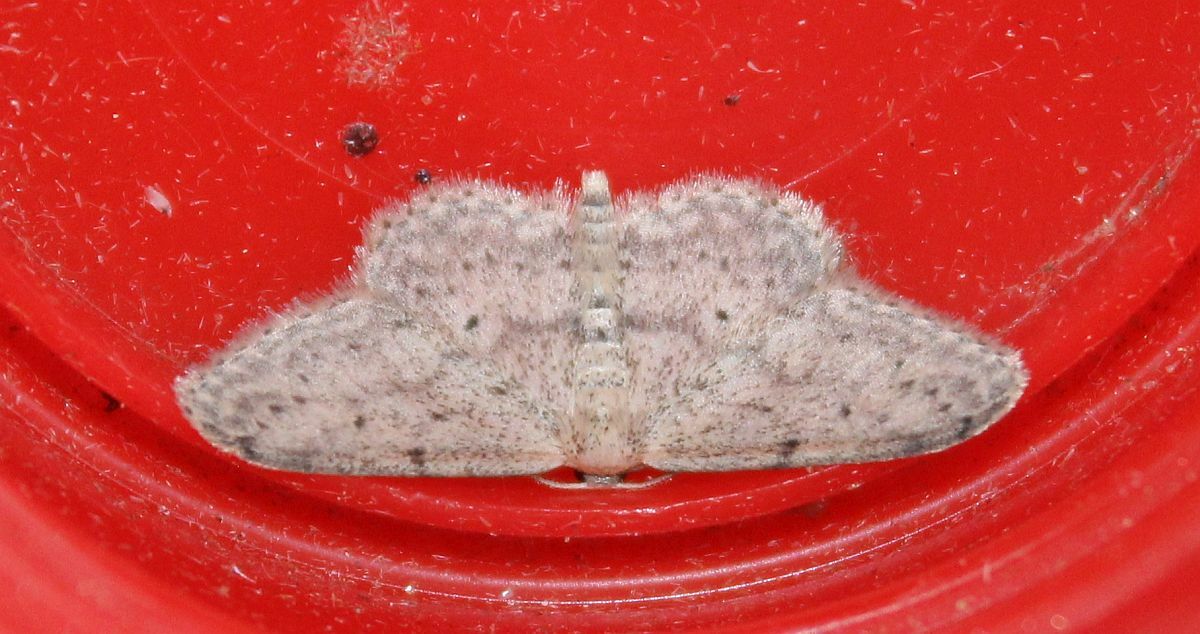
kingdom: Animalia
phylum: Arthropoda
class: Insecta
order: Lepidoptera
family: Geometridae
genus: Idaea
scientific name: Idaea seriata
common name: Small dusty wave
